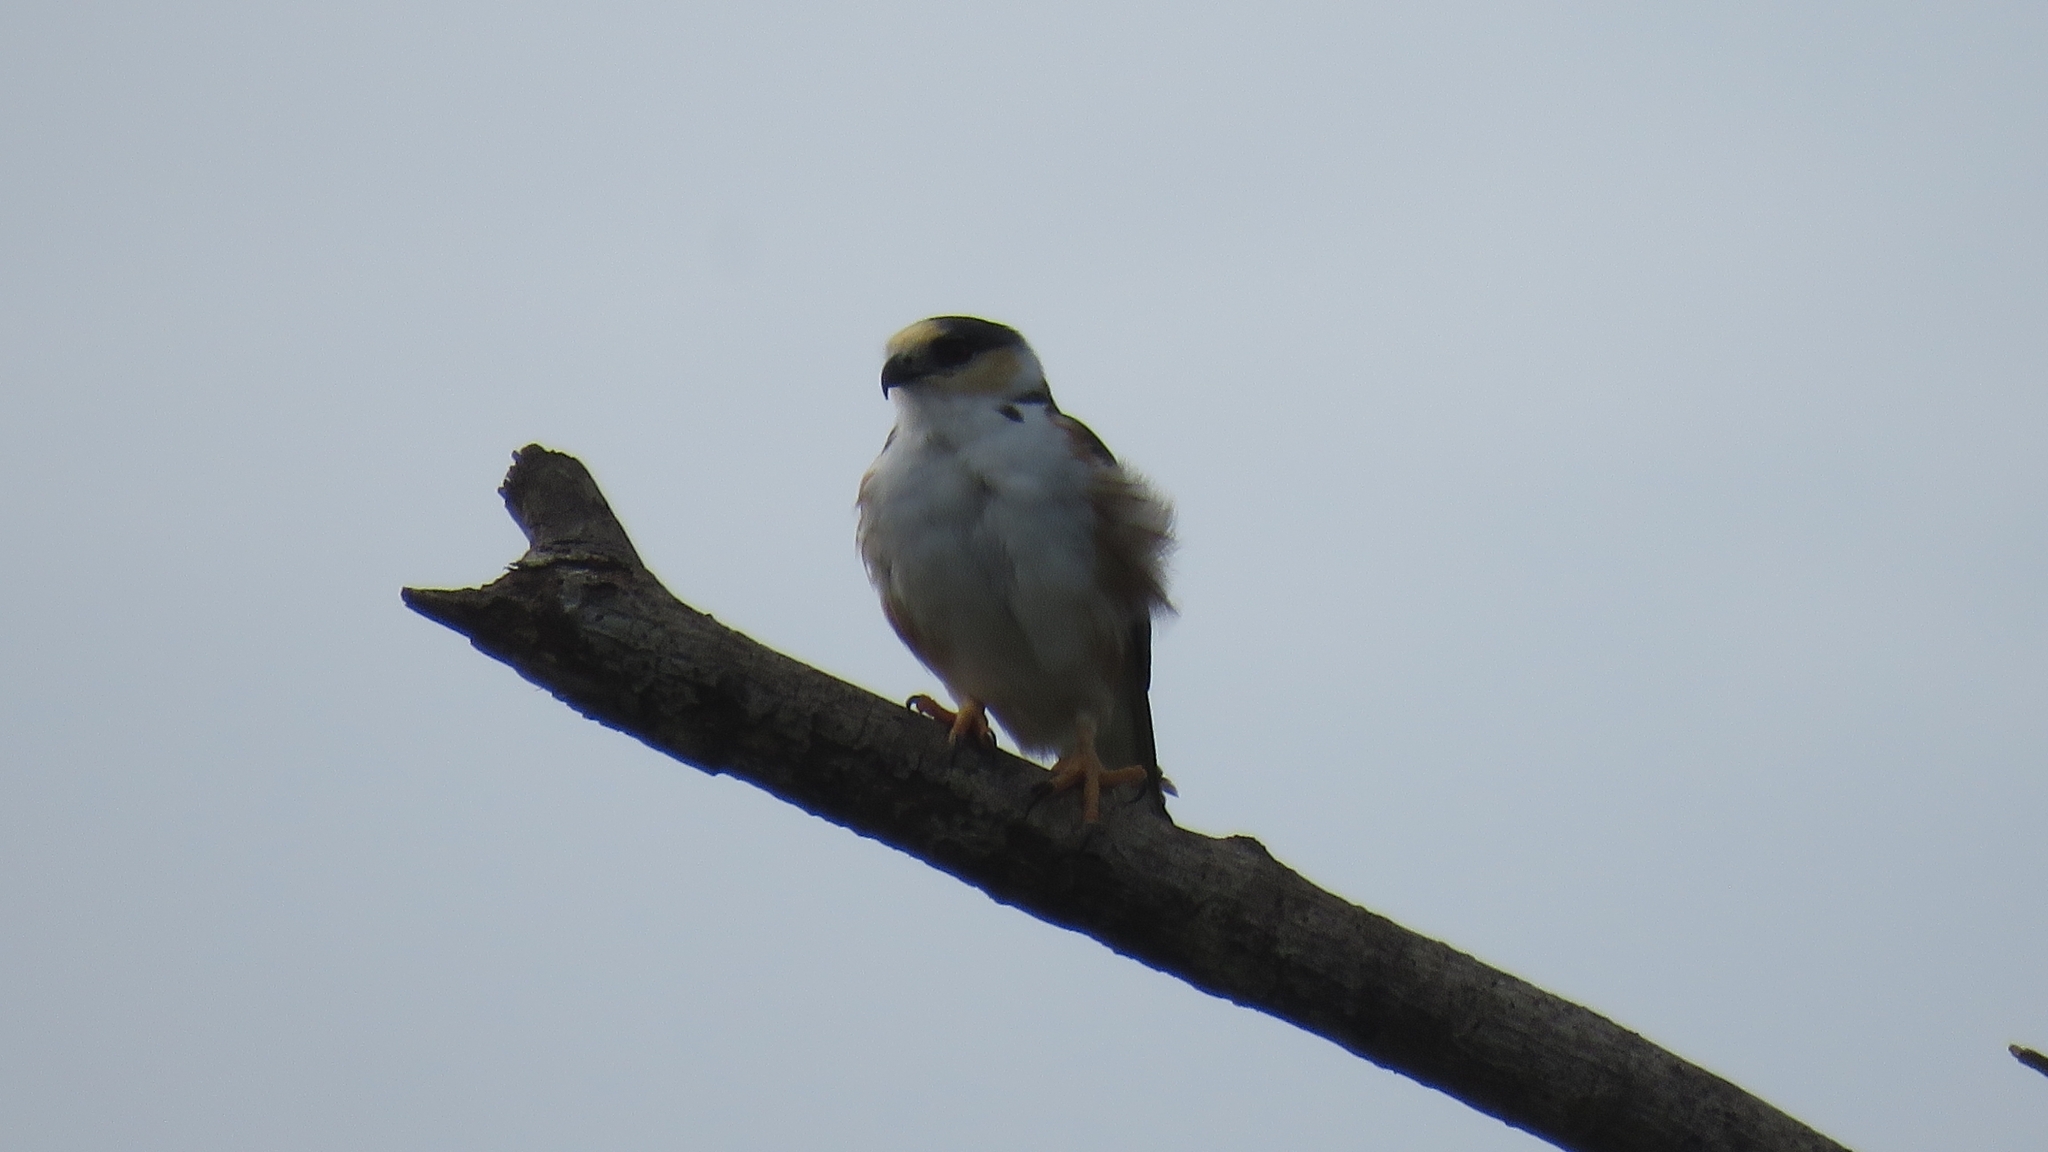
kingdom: Animalia
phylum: Chordata
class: Aves
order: Accipitriformes
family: Accipitridae
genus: Gampsonyx
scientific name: Gampsonyx swainsonii
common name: Pearl kite
